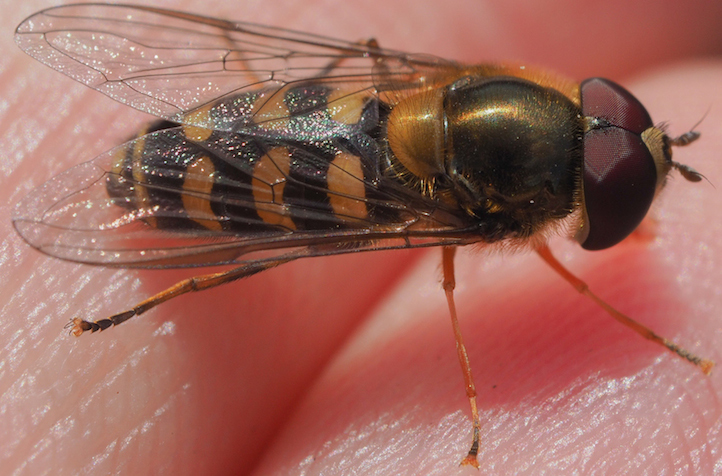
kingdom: Animalia
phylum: Arthropoda
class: Insecta
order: Diptera
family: Syrphidae
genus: Lapposyrphus
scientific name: Lapposyrphus lapponicus
